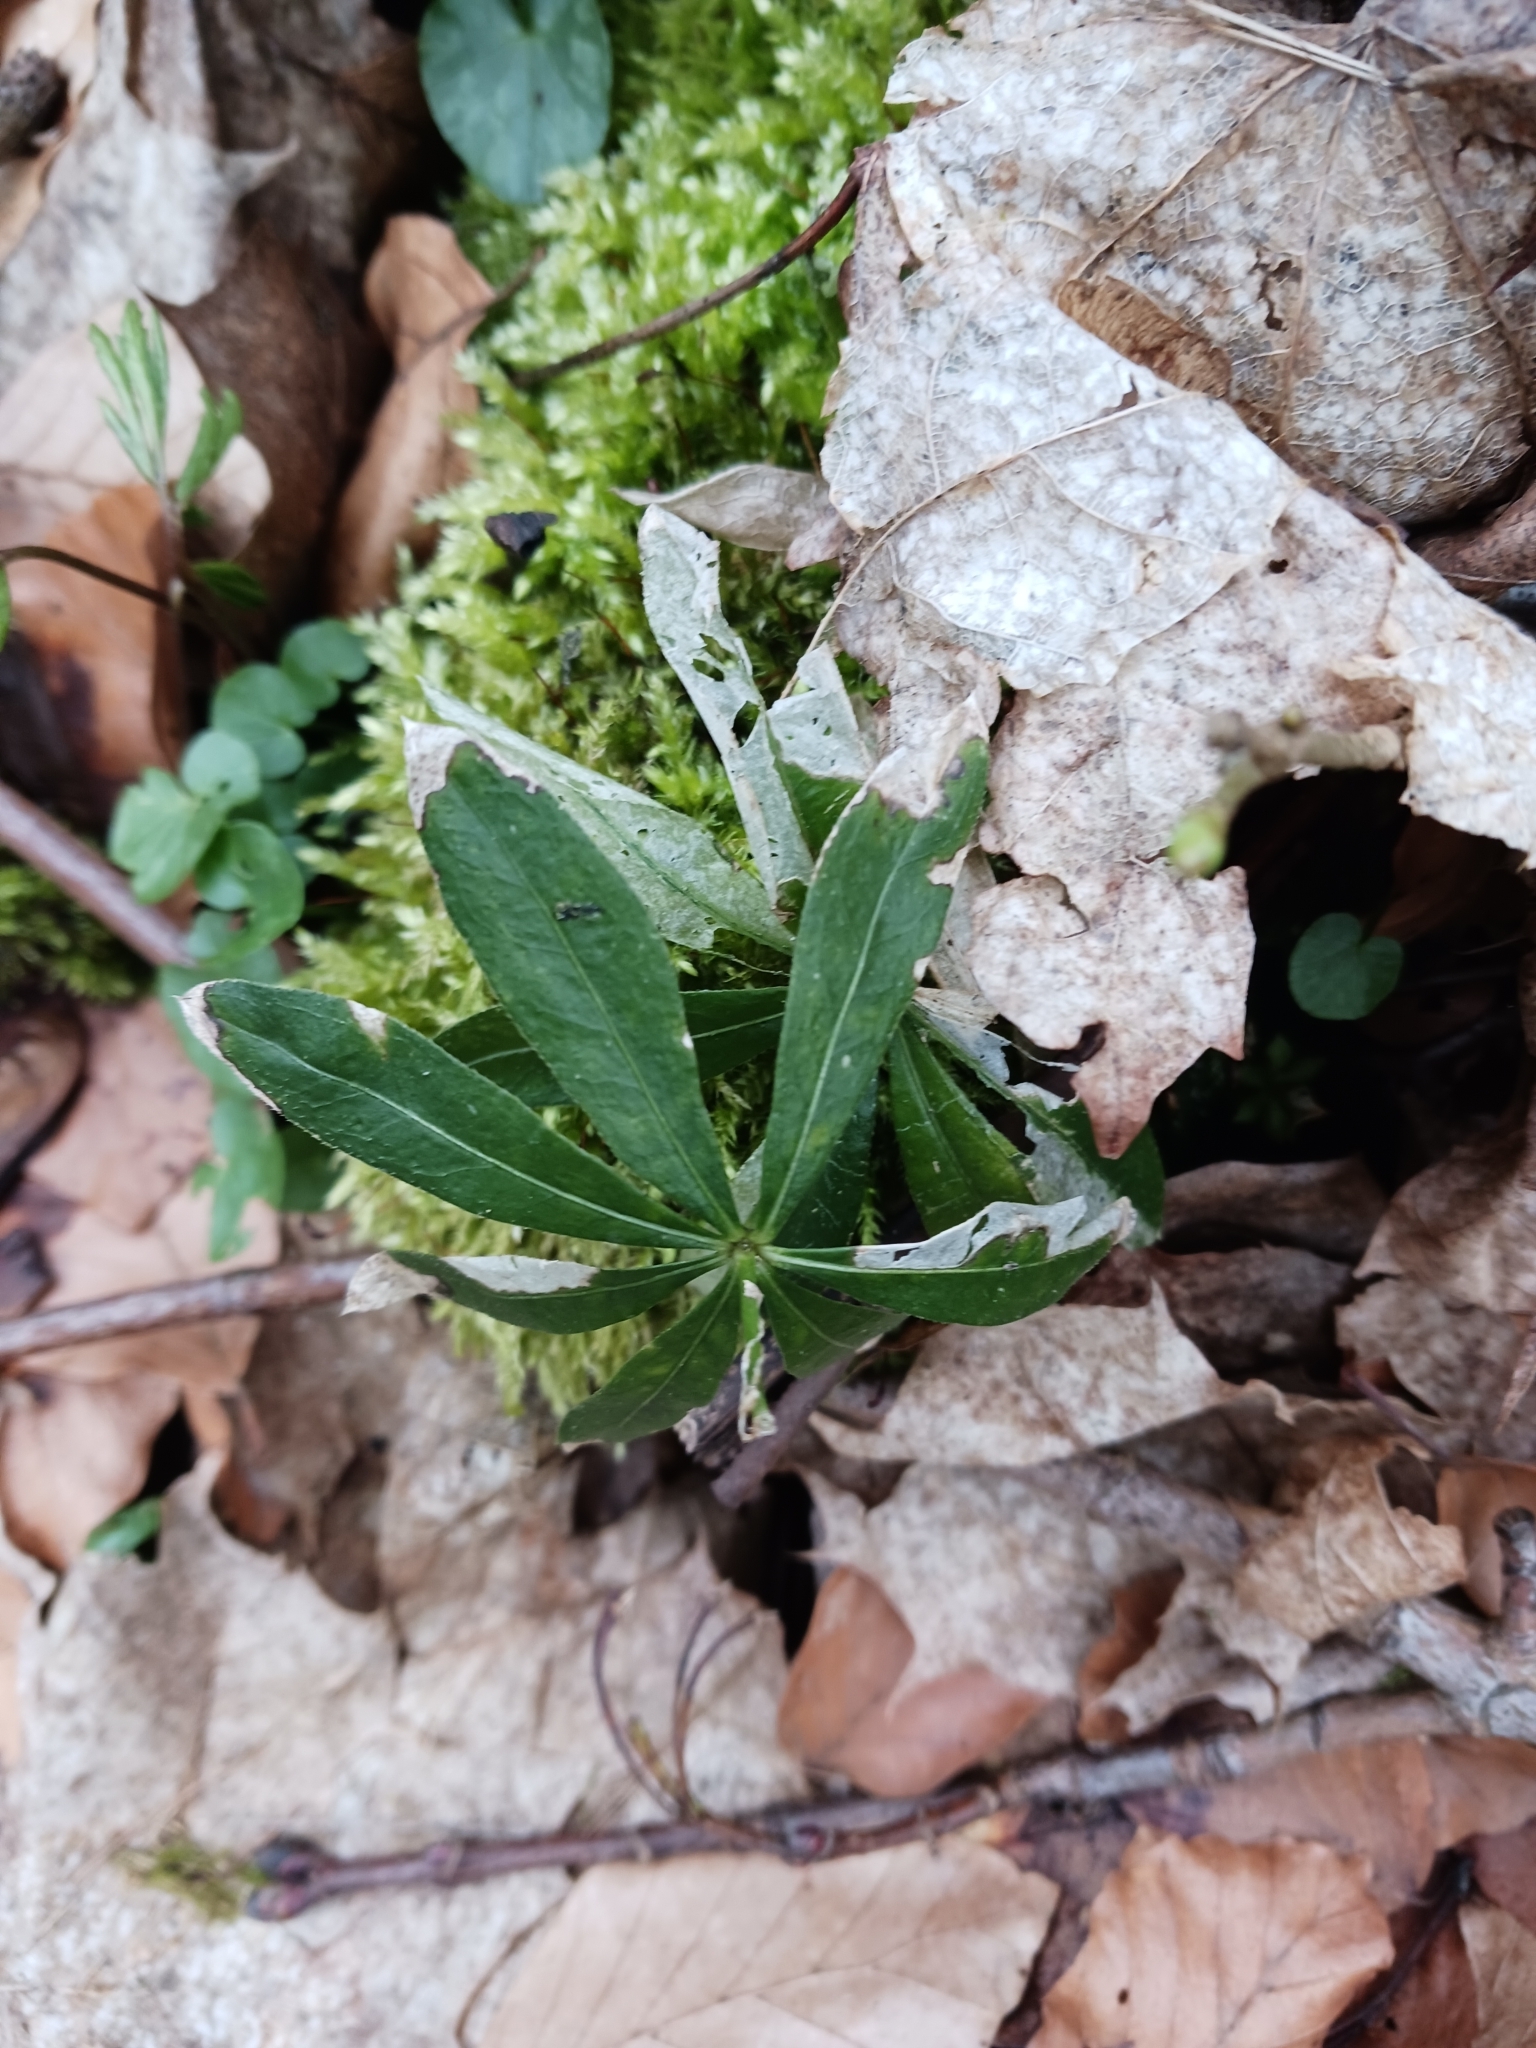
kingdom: Plantae
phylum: Tracheophyta
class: Magnoliopsida
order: Gentianales
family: Rubiaceae
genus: Galium
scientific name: Galium odoratum
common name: Sweet woodruff
